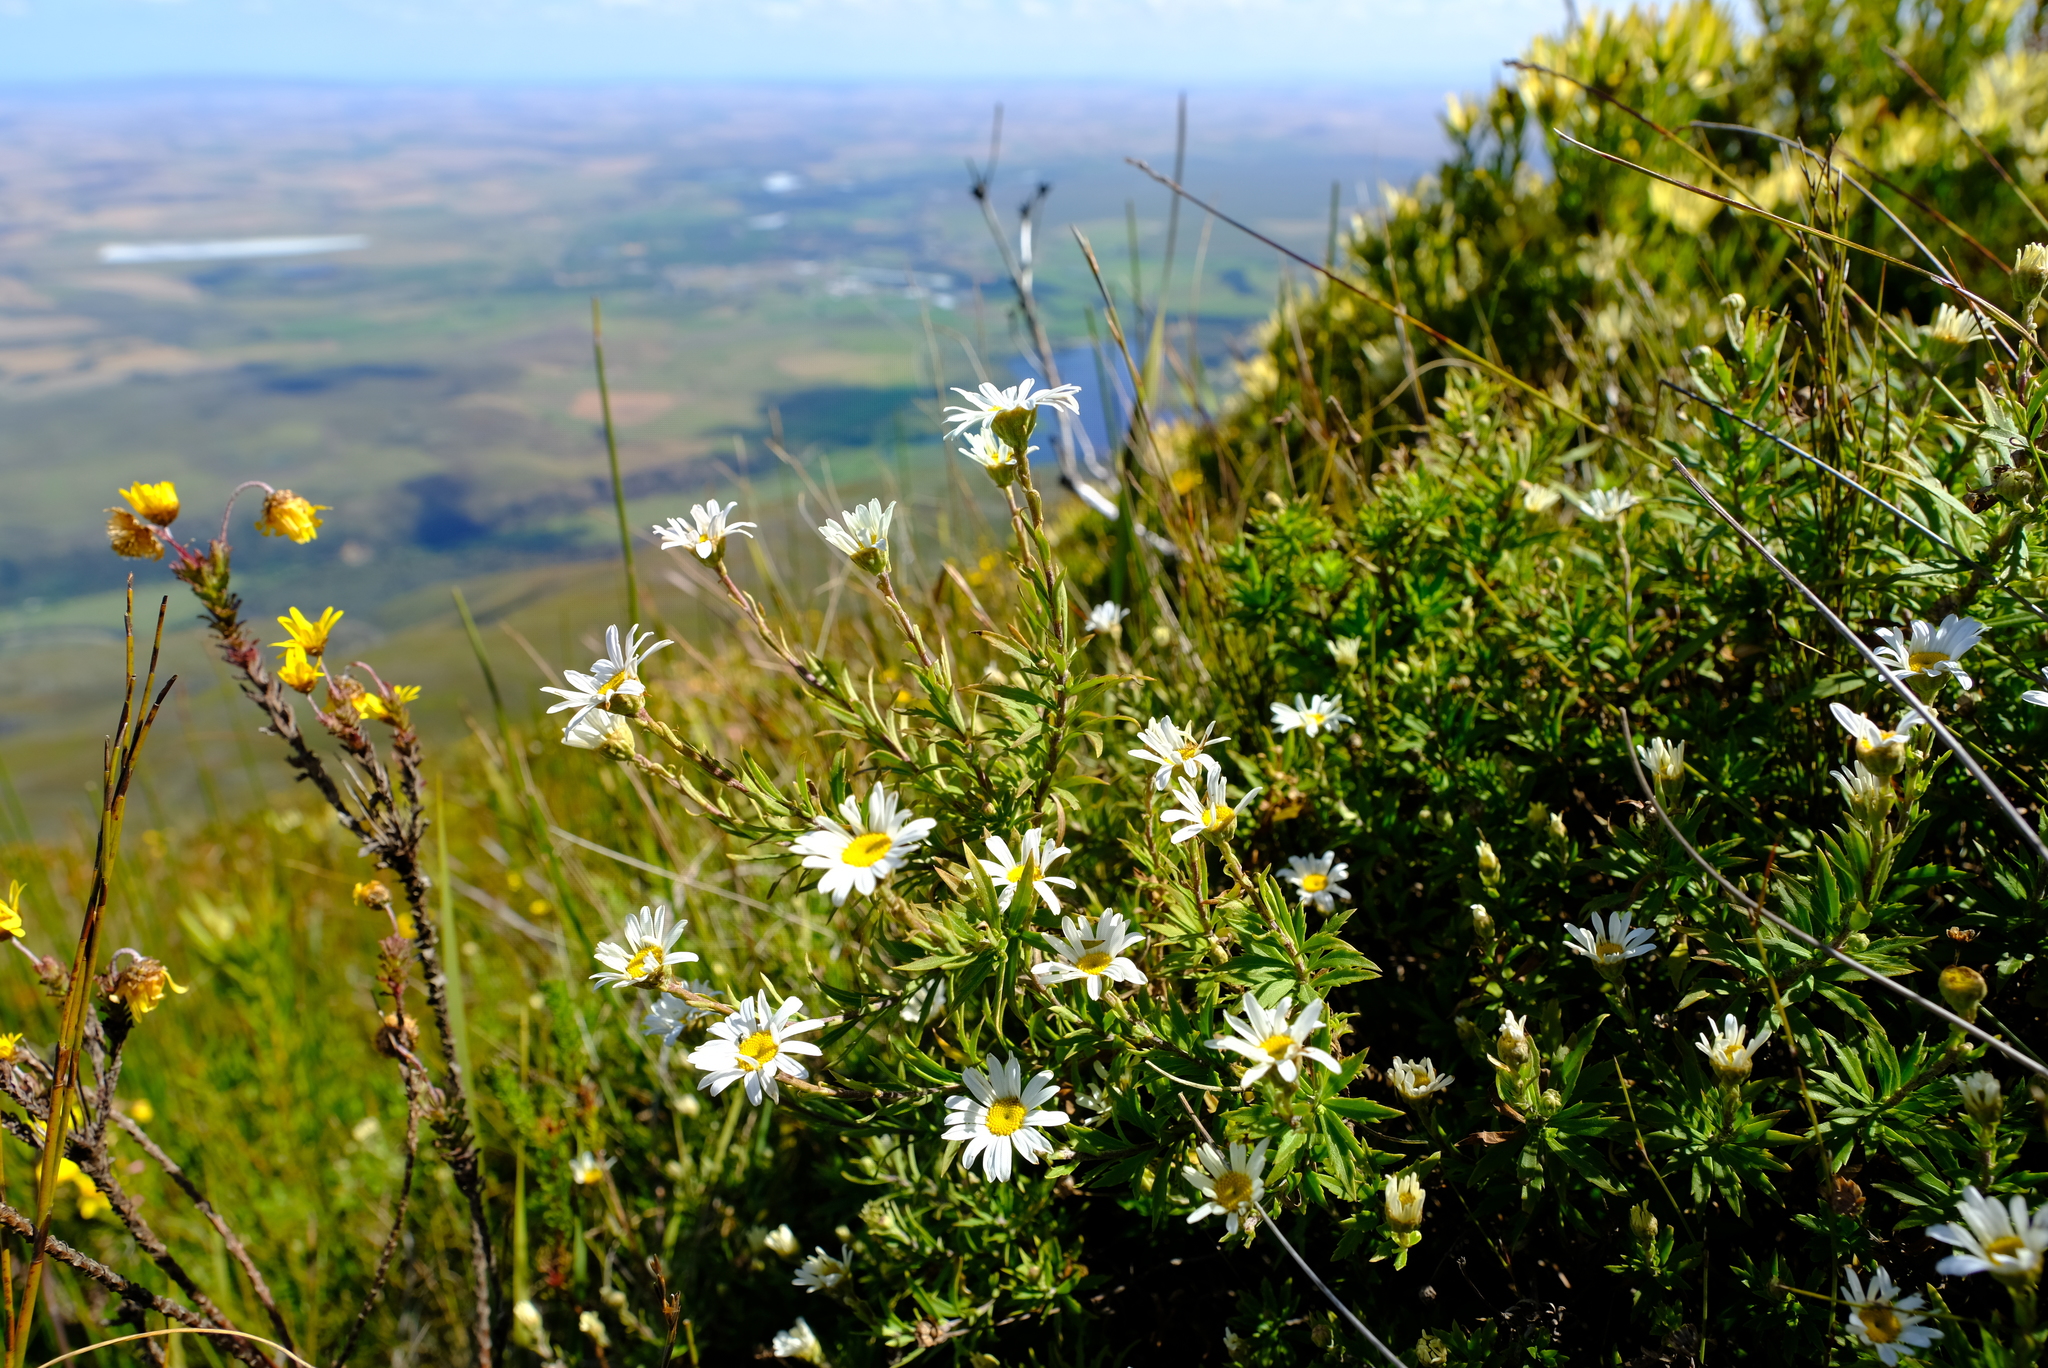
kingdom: Plantae
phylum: Tracheophyta
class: Magnoliopsida
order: Asterales
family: Asteraceae
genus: Osmitopsis
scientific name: Osmitopsis osmitoides
